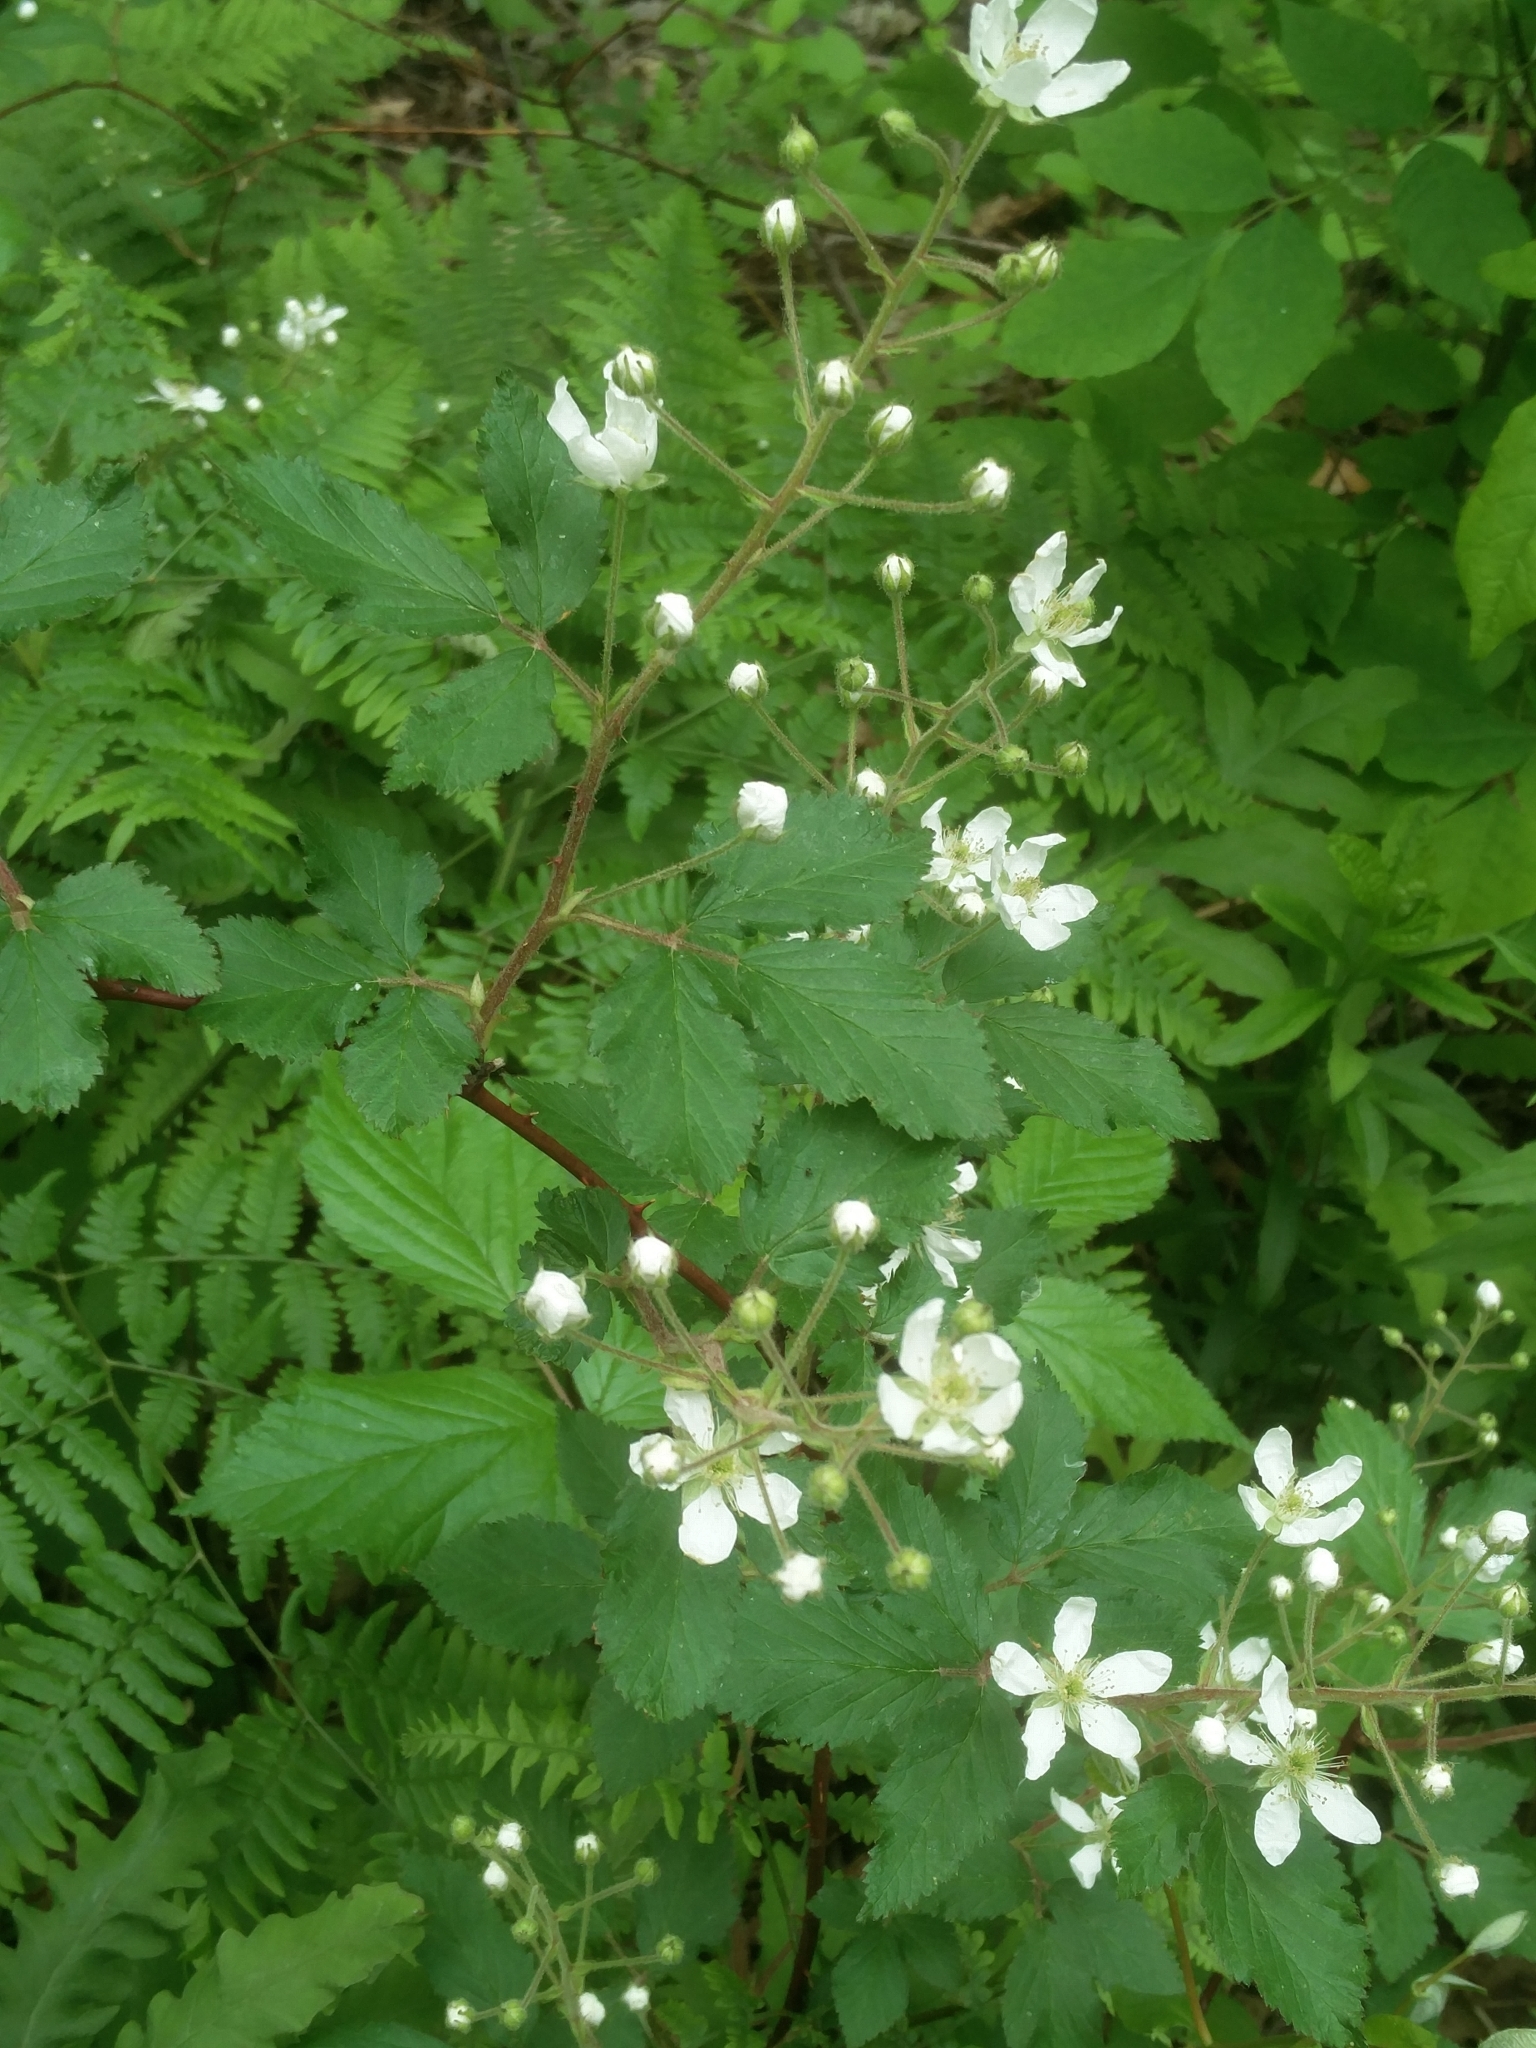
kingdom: Plantae
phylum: Tracheophyta
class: Magnoliopsida
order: Rosales
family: Rosaceae
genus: Rubus
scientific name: Rubus allegheniensis
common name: Allegheny blackberry
